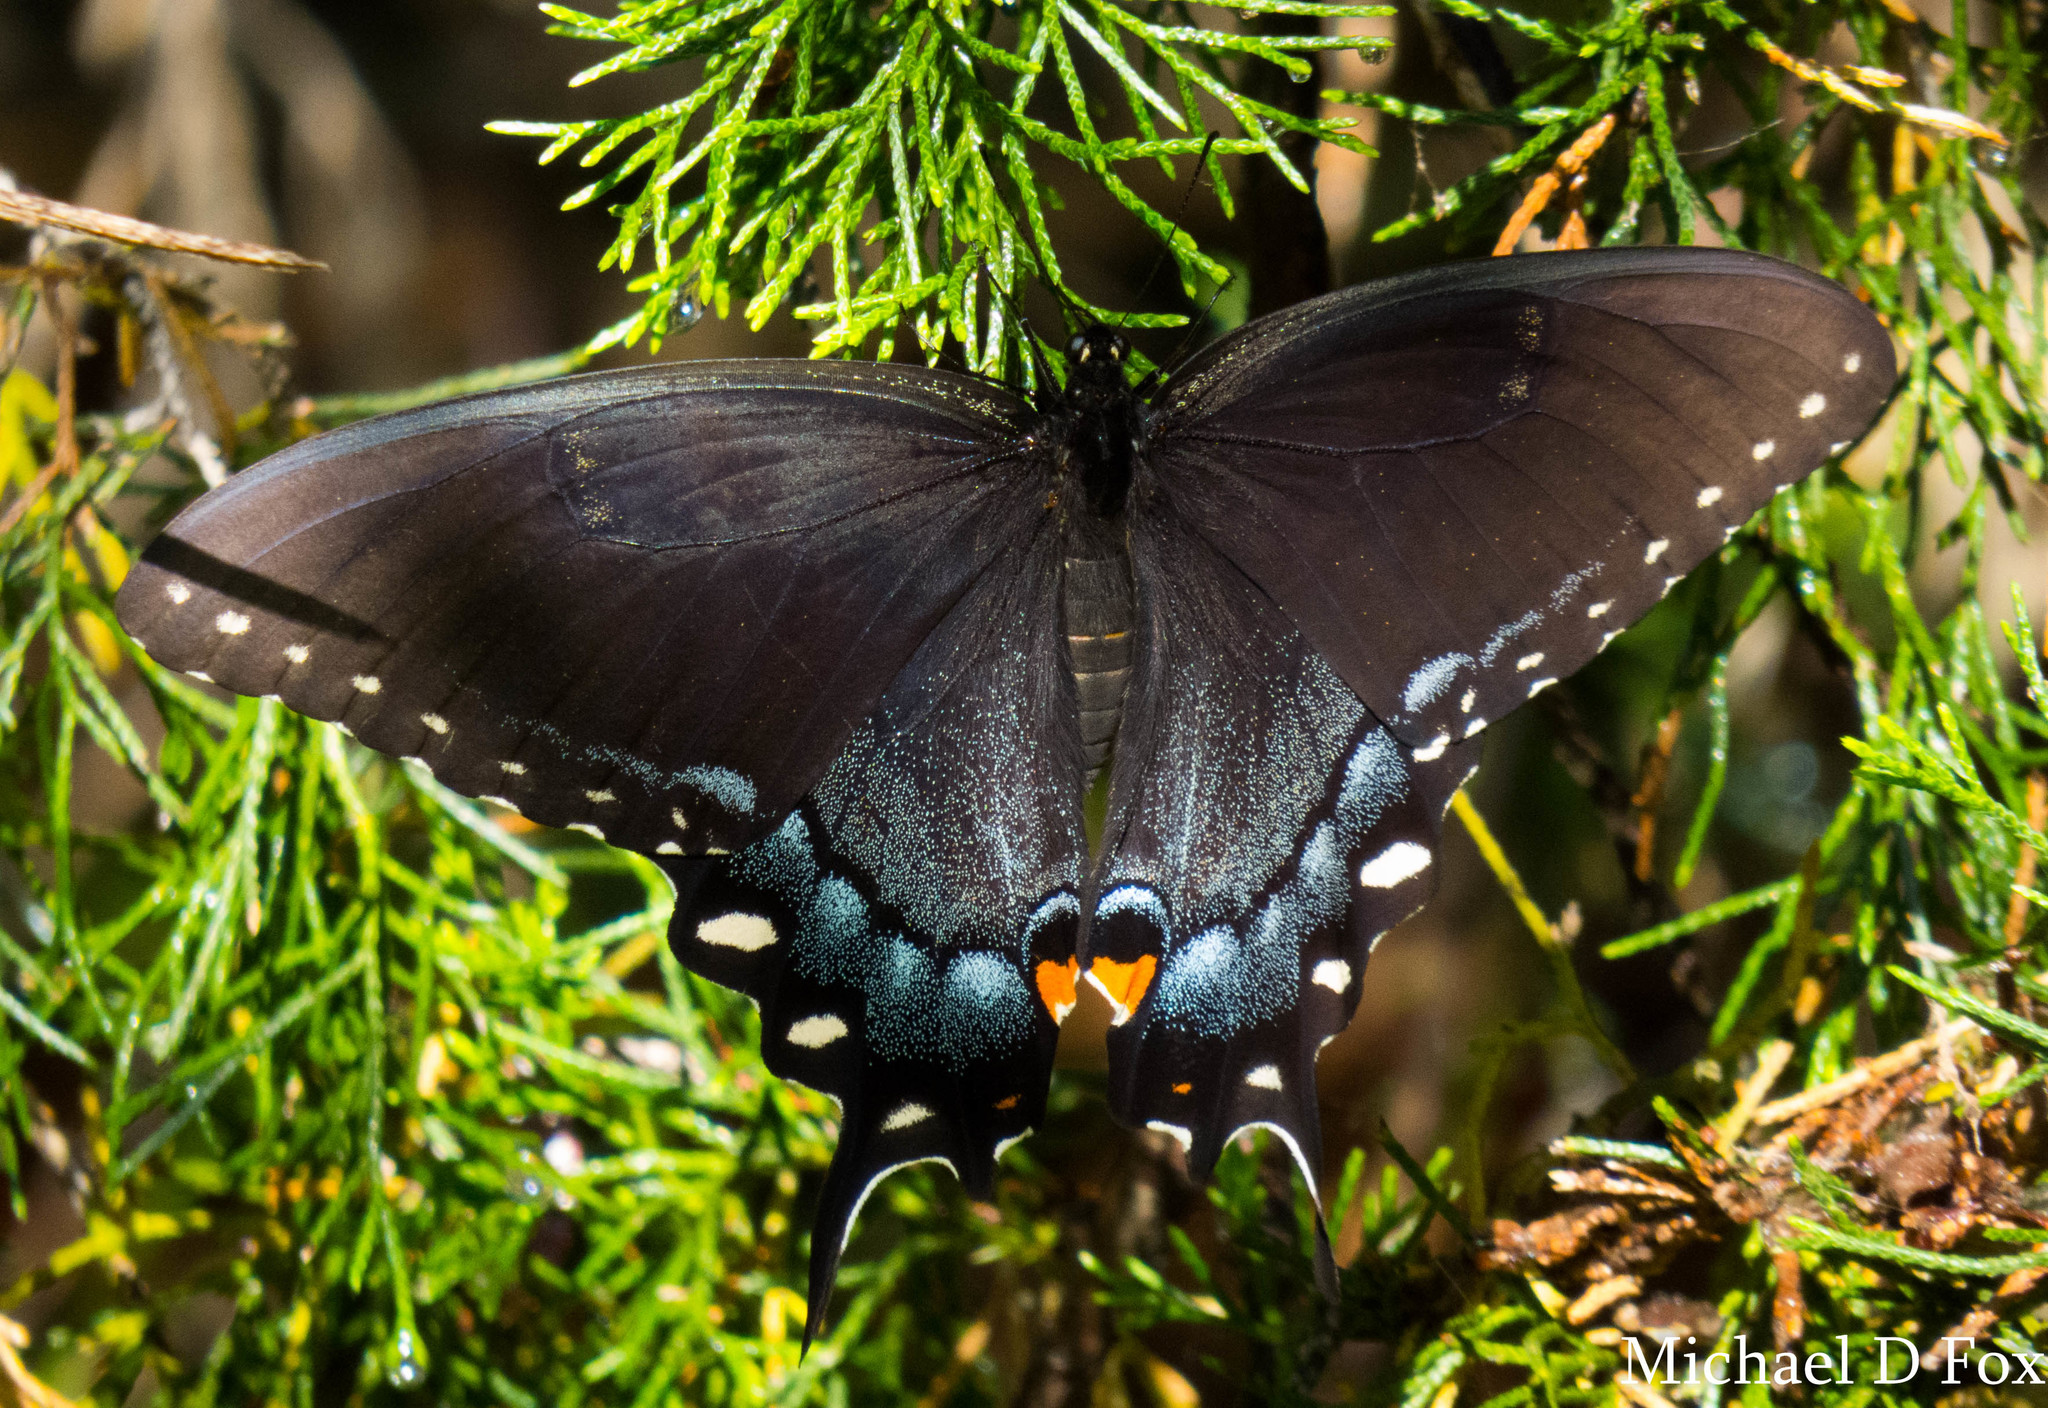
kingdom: Animalia
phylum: Arthropoda
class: Insecta
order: Lepidoptera
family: Papilionidae
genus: Papilio
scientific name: Papilio glaucus
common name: Tiger swallowtail
